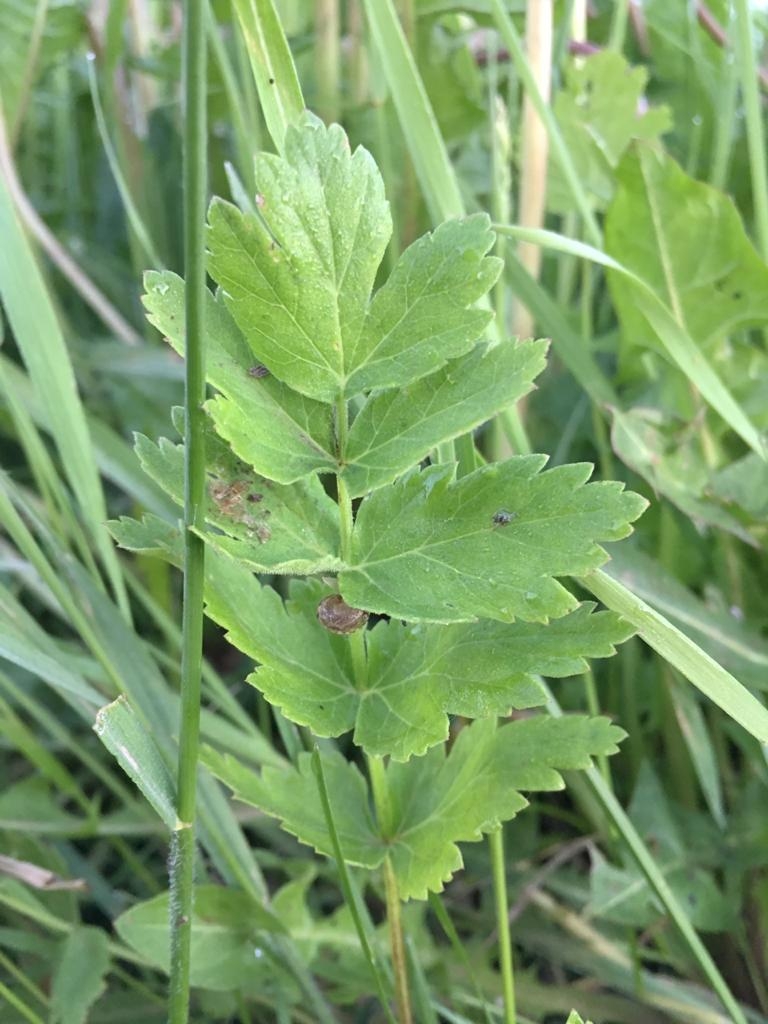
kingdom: Plantae
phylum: Tracheophyta
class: Magnoliopsida
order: Apiales
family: Apiaceae
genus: Pastinaca
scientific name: Pastinaca sativa
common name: Wild parsnip
